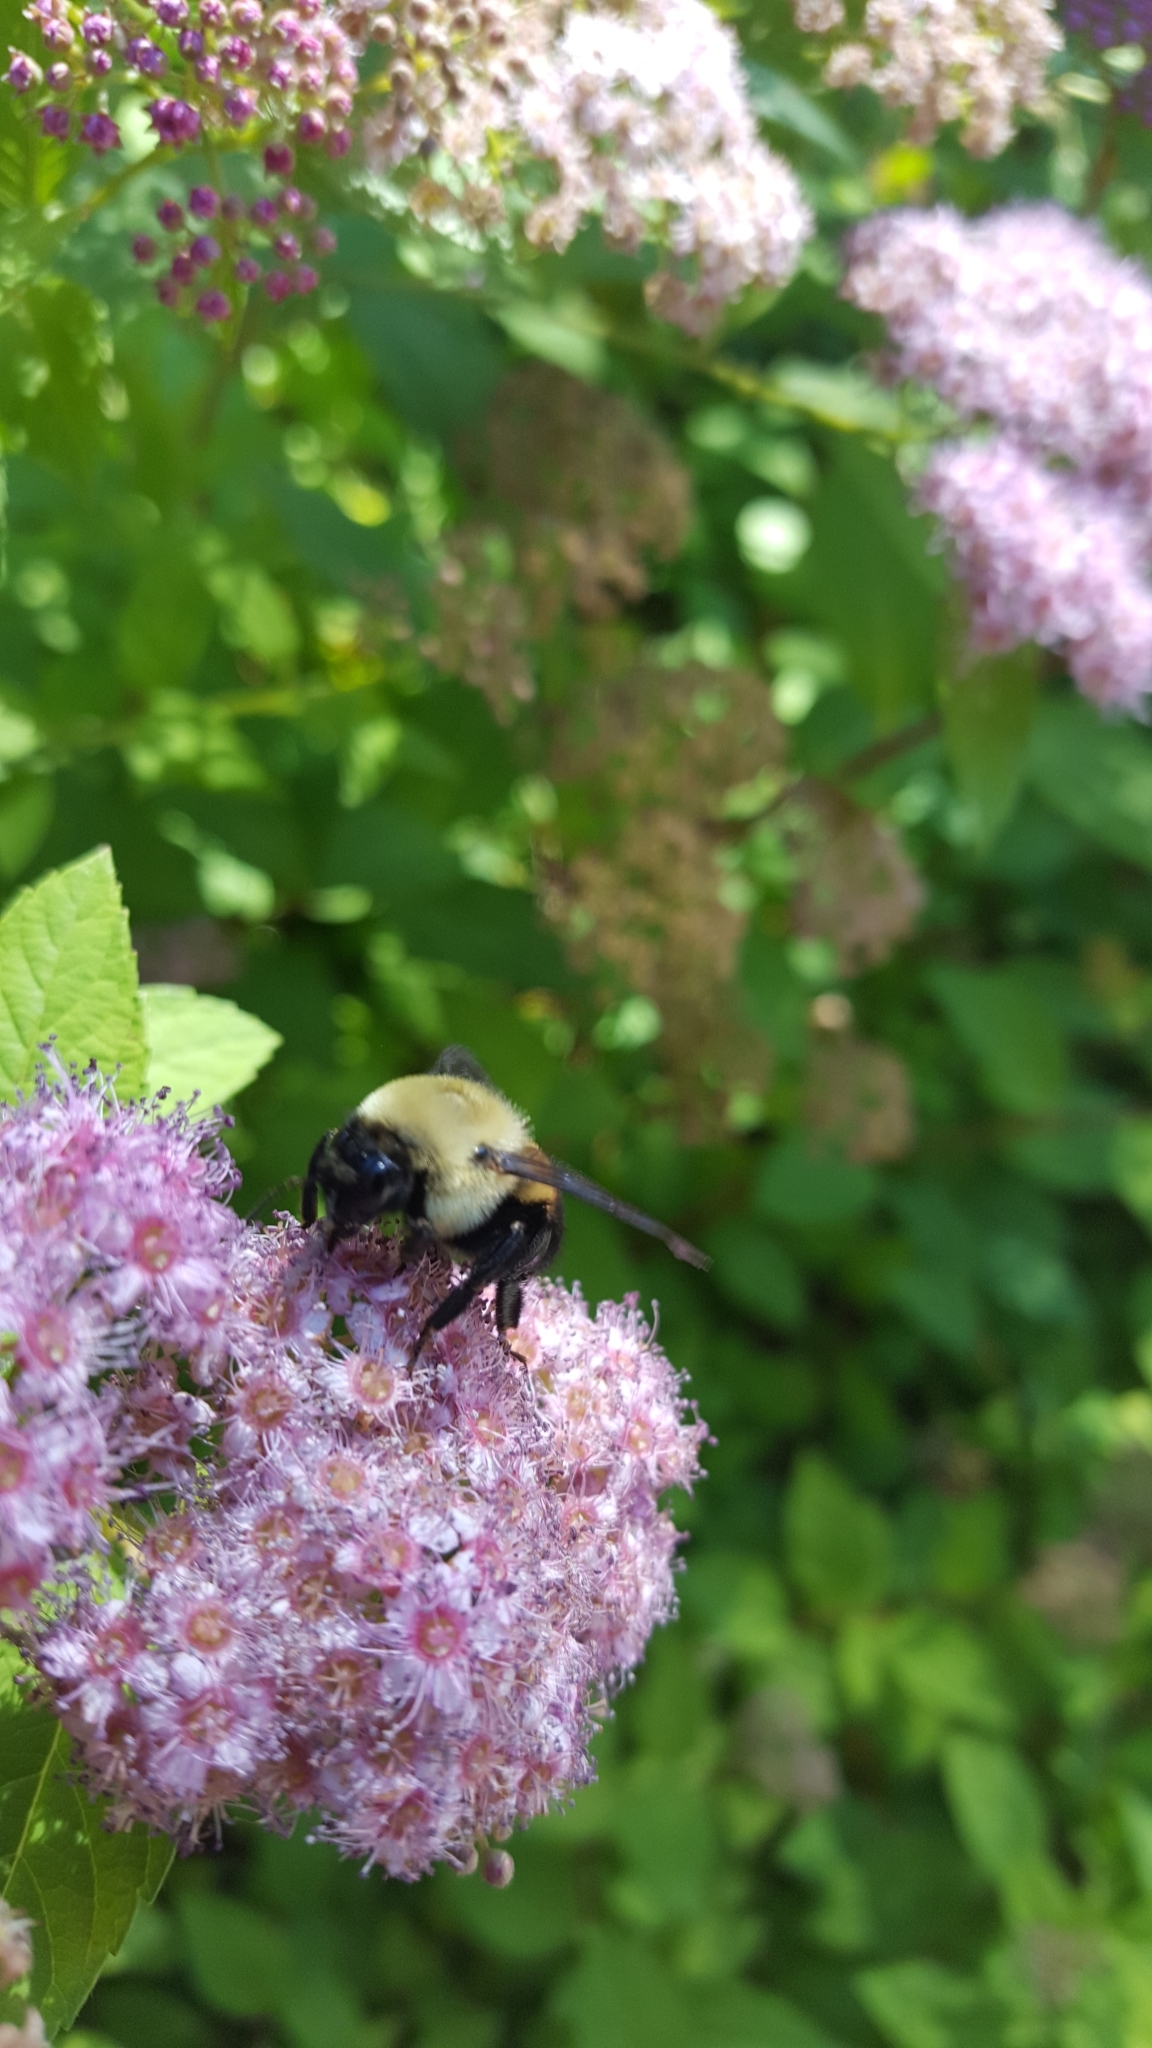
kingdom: Animalia
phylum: Arthropoda
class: Insecta
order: Hymenoptera
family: Apidae
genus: Bombus
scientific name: Bombus griseocollis
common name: Brown-belted bumble bee
